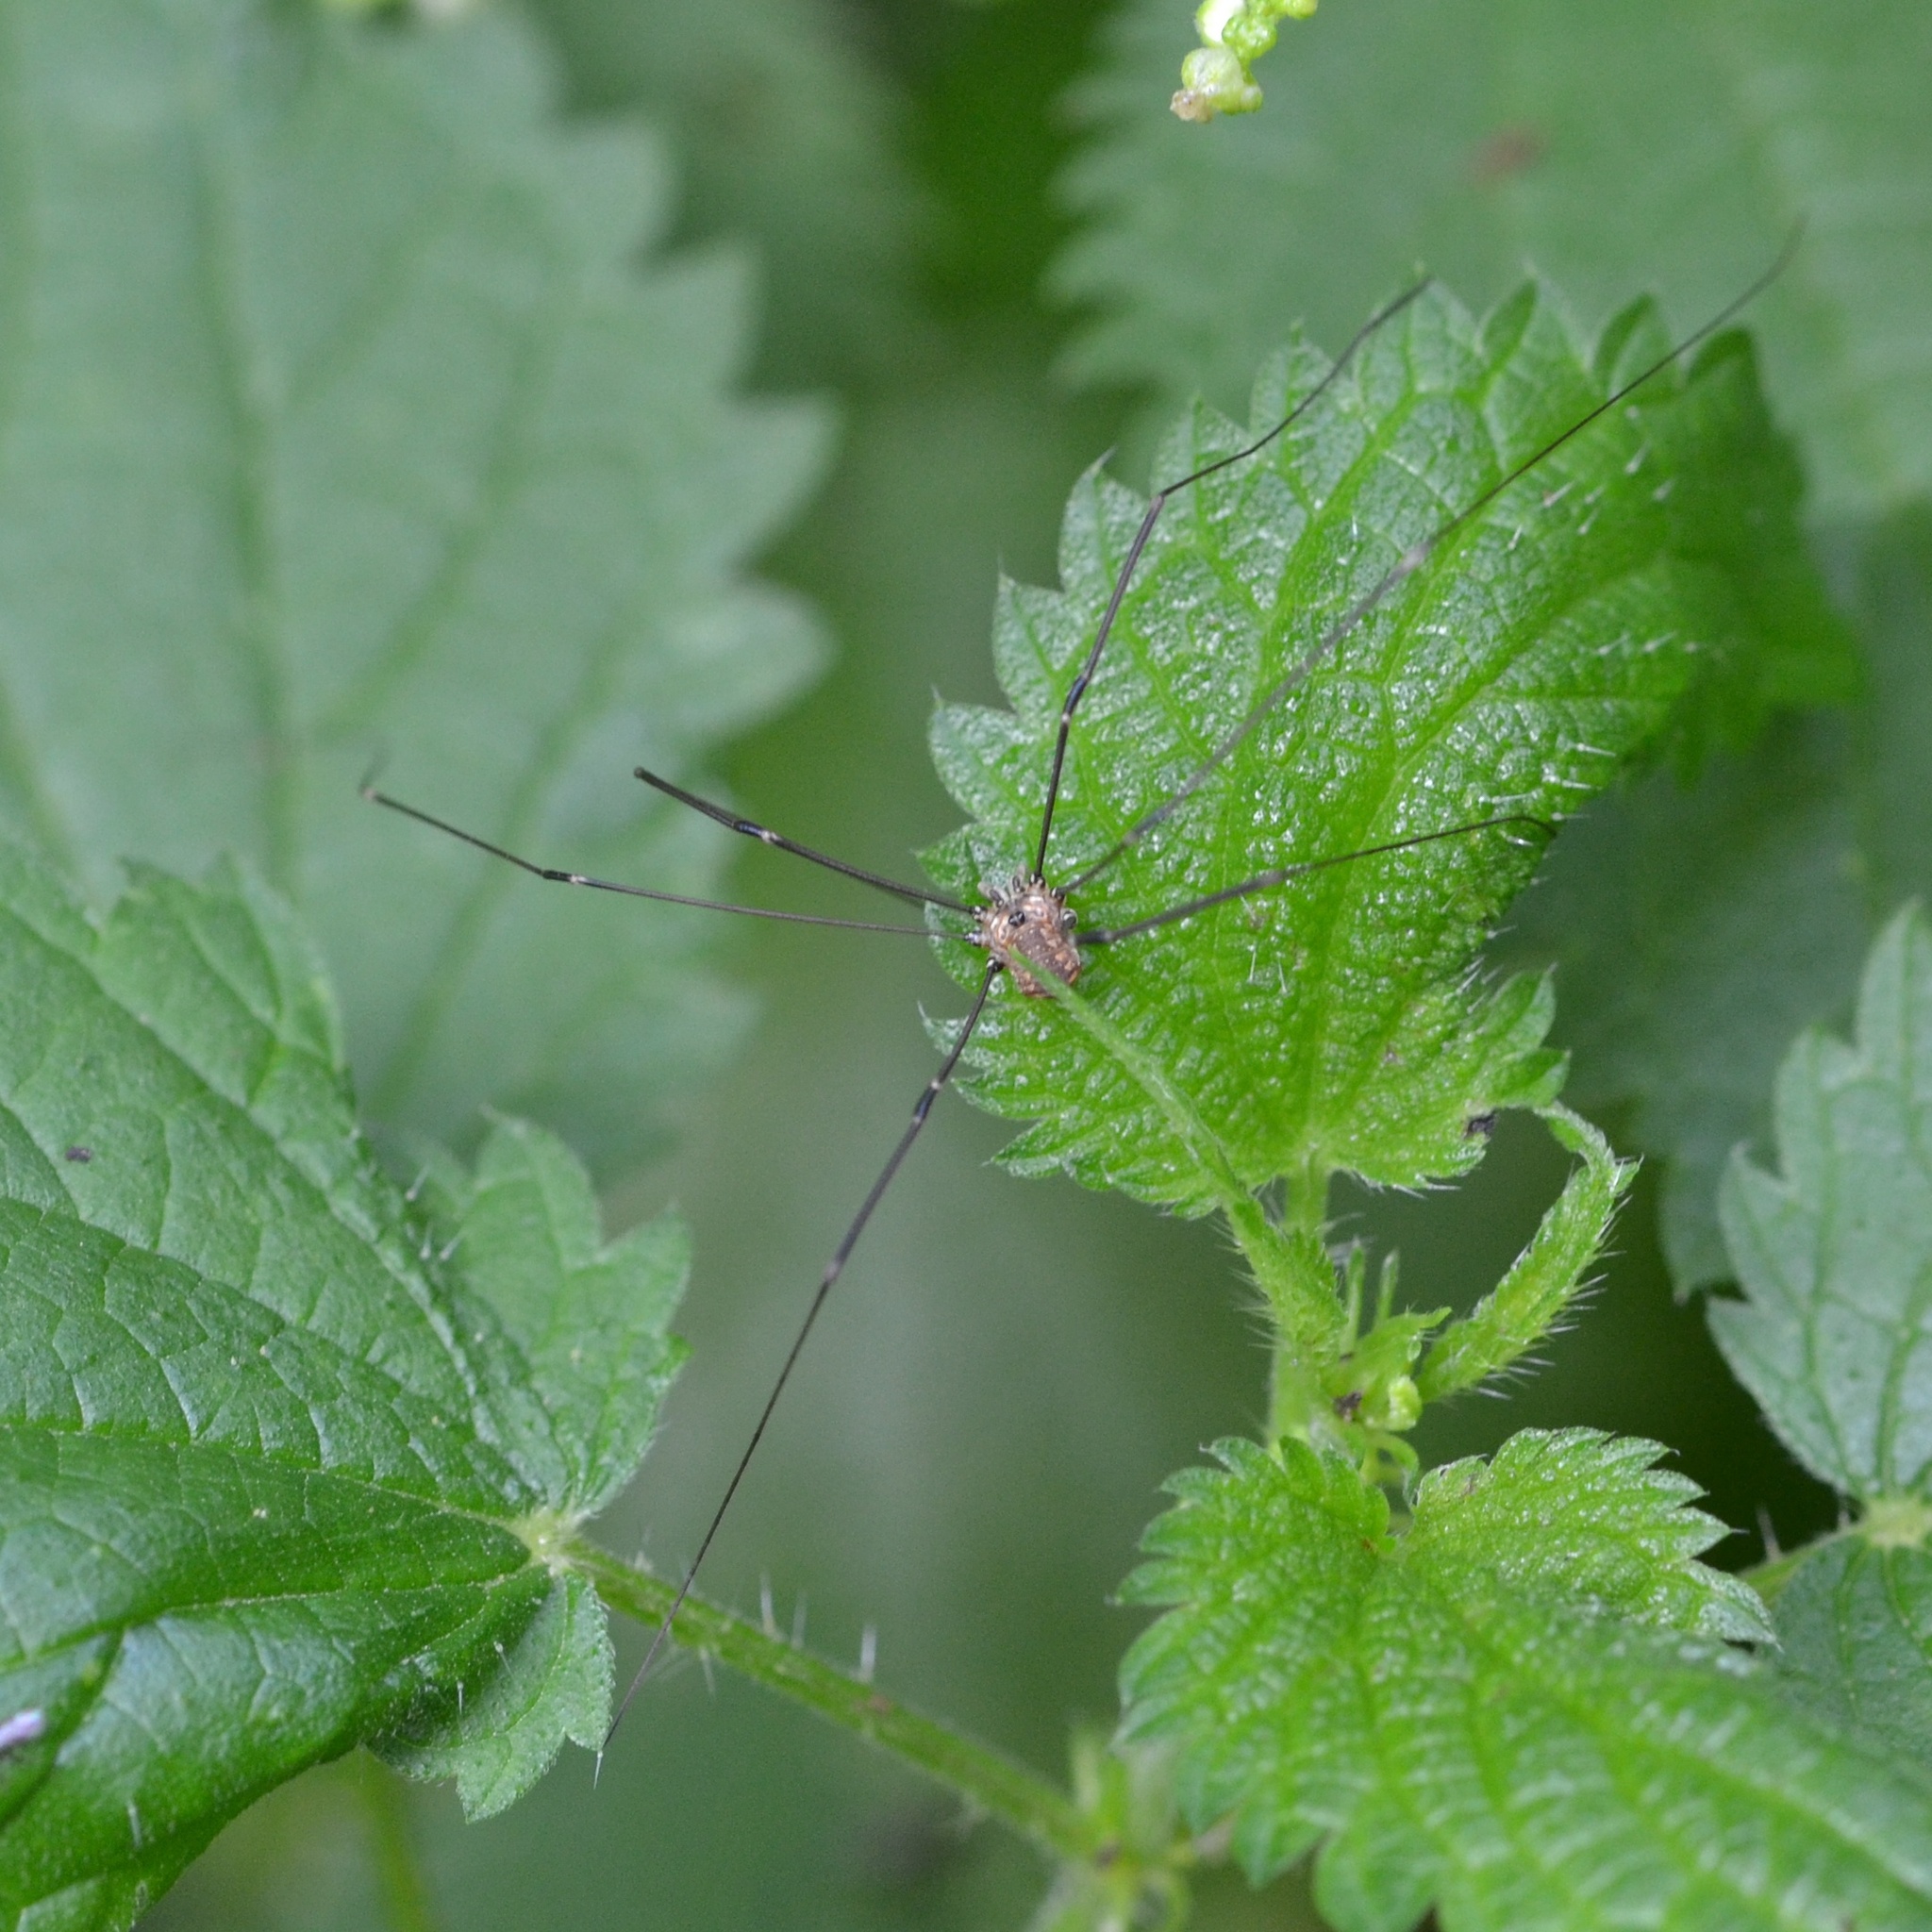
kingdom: Animalia
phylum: Arthropoda
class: Arachnida
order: Opiliones
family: Sclerosomatidae
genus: Leiobunum
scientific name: Leiobunum rotundum
